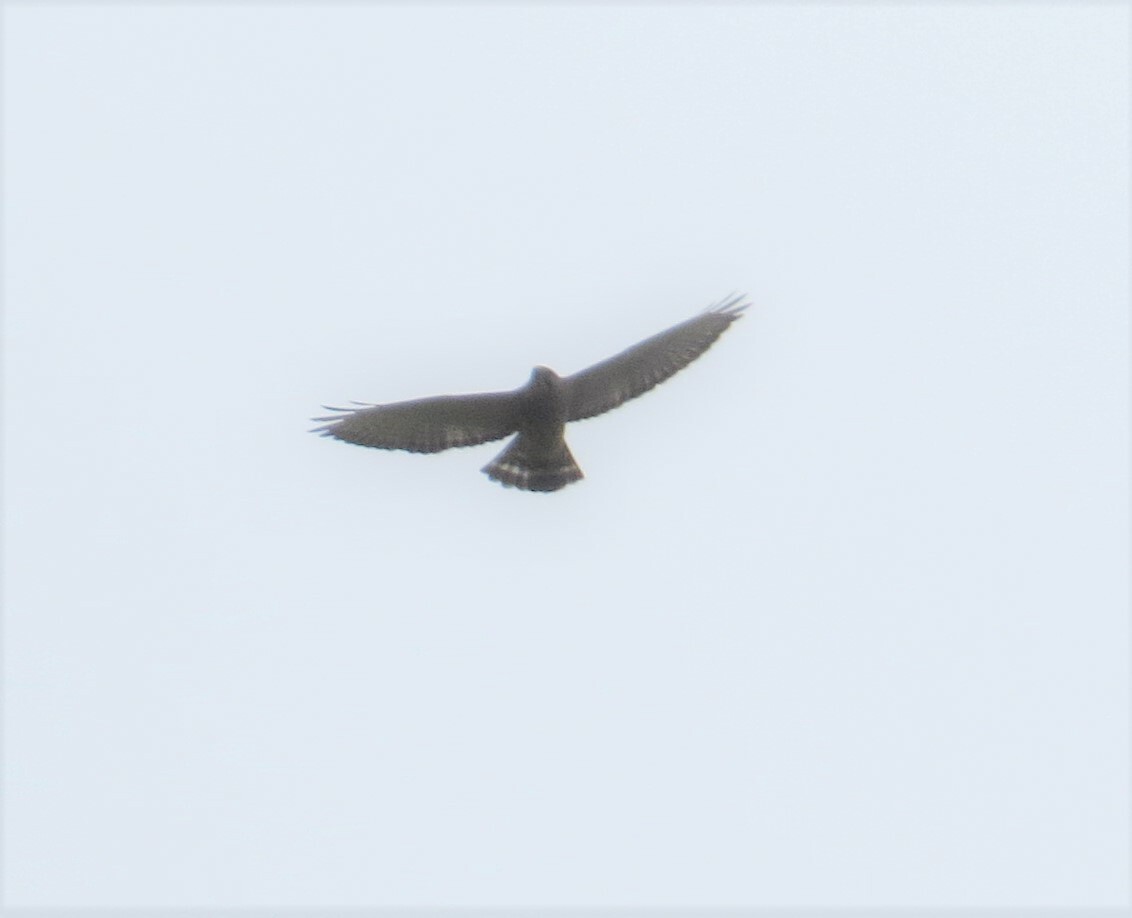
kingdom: Animalia
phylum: Chordata
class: Aves
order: Accipitriformes
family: Accipitridae
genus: Buteo
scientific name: Buteo platypterus
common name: Broad-winged hawk
